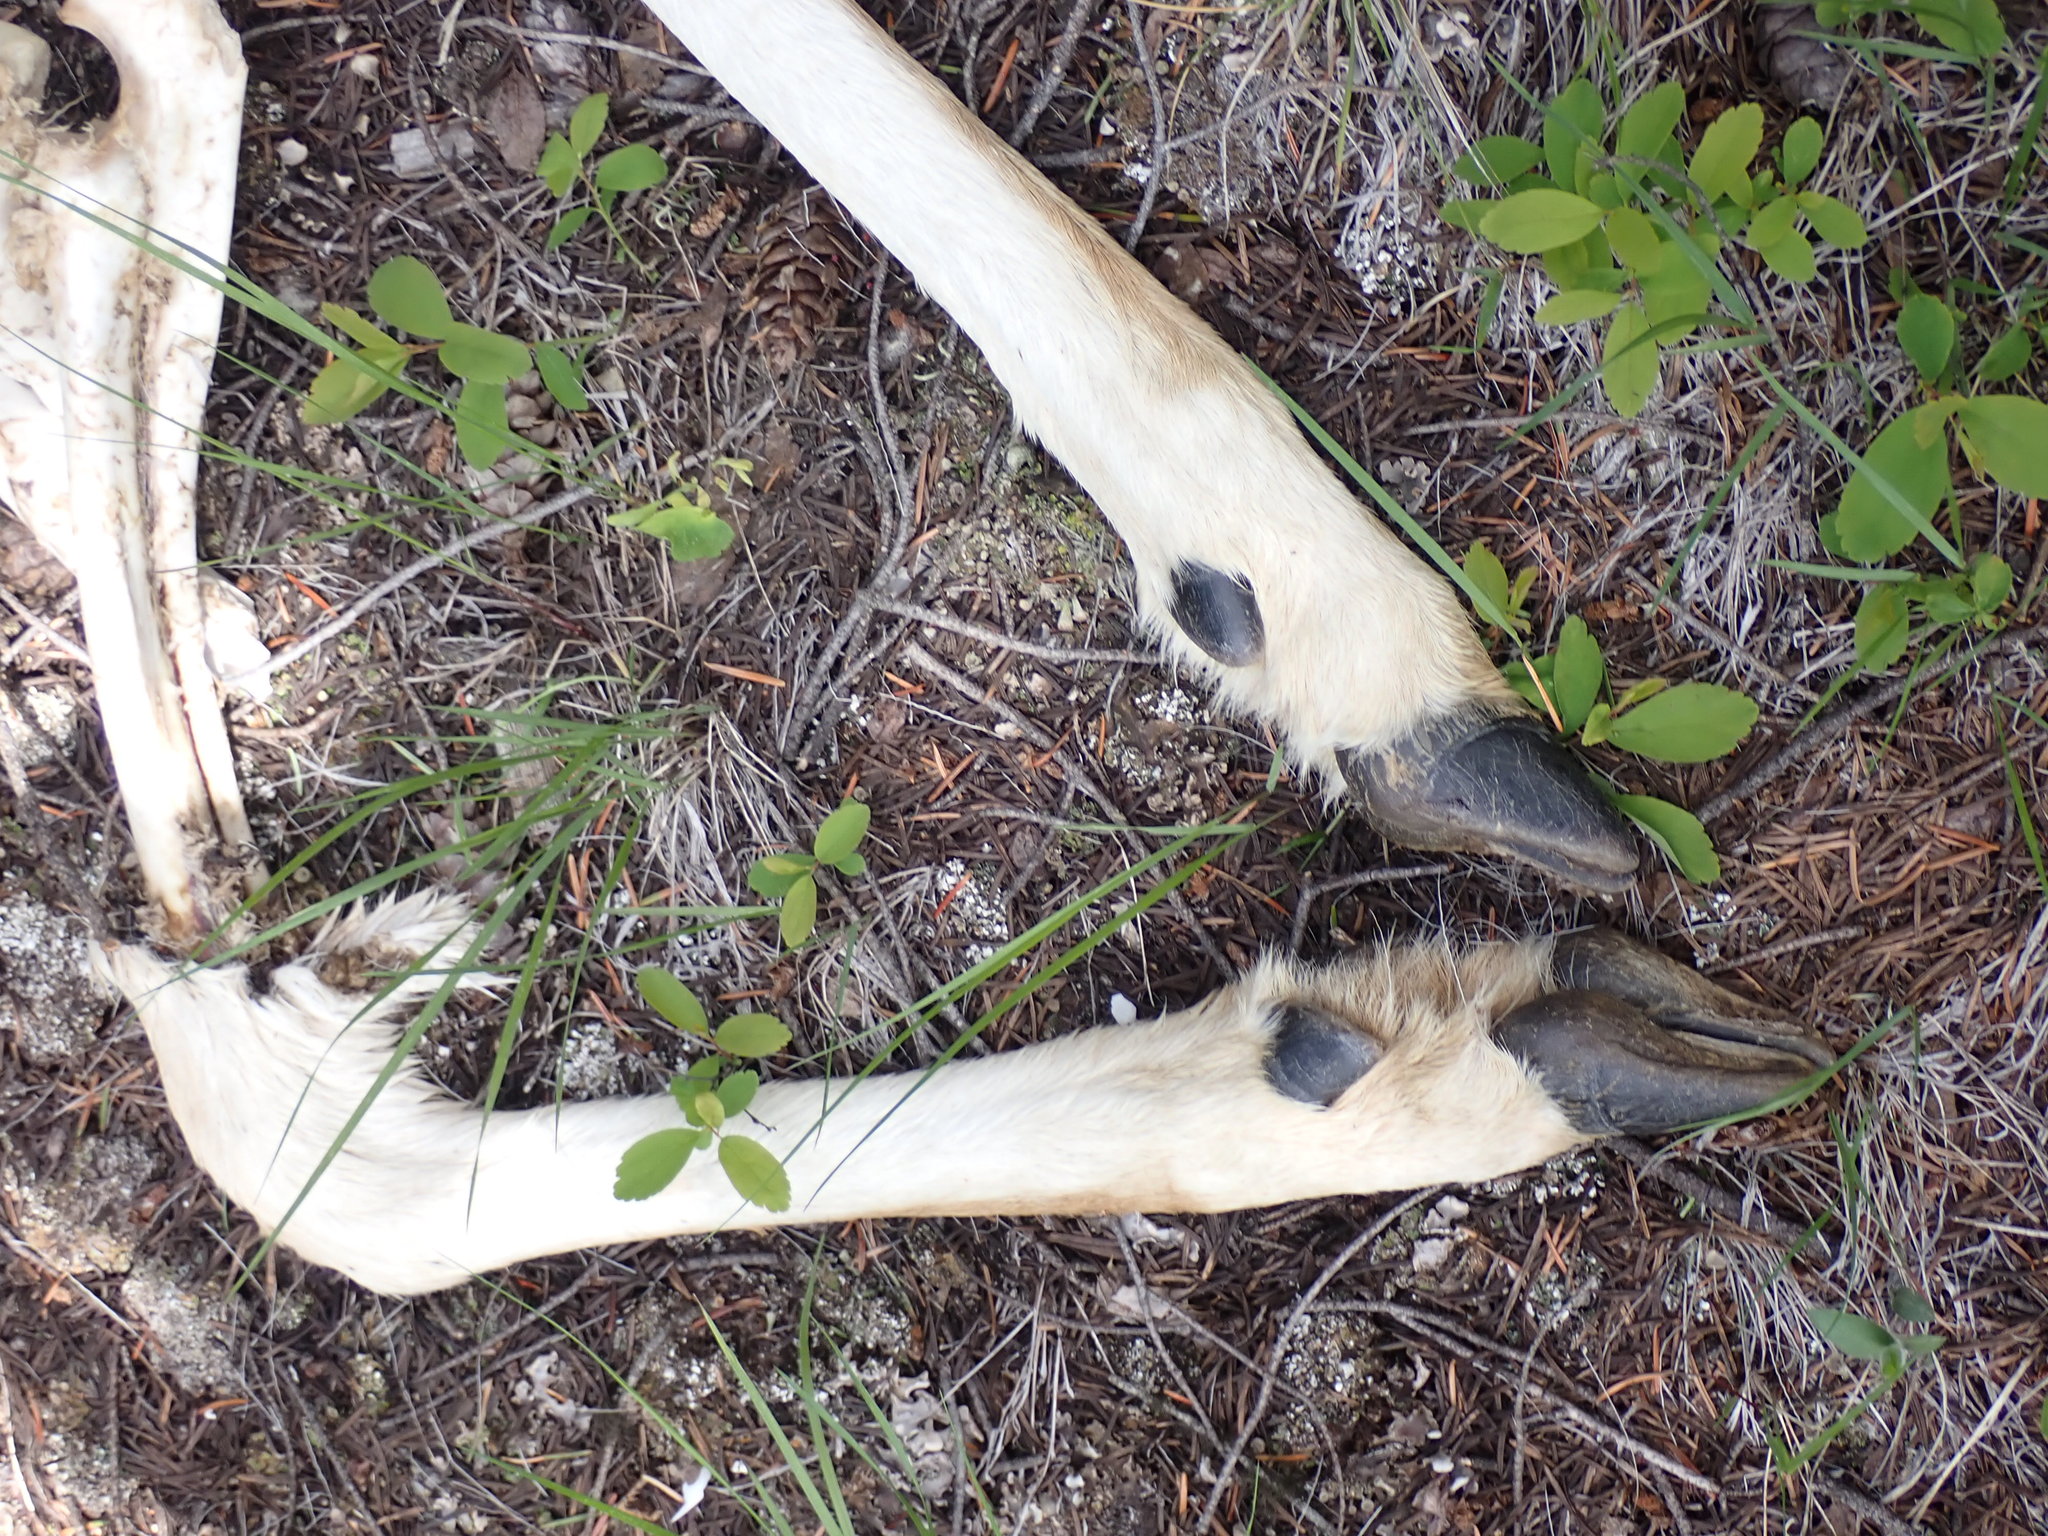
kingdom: Animalia
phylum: Chordata
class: Mammalia
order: Artiodactyla
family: Cervidae
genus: Odocoileus
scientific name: Odocoileus hemionus
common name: Mule deer
